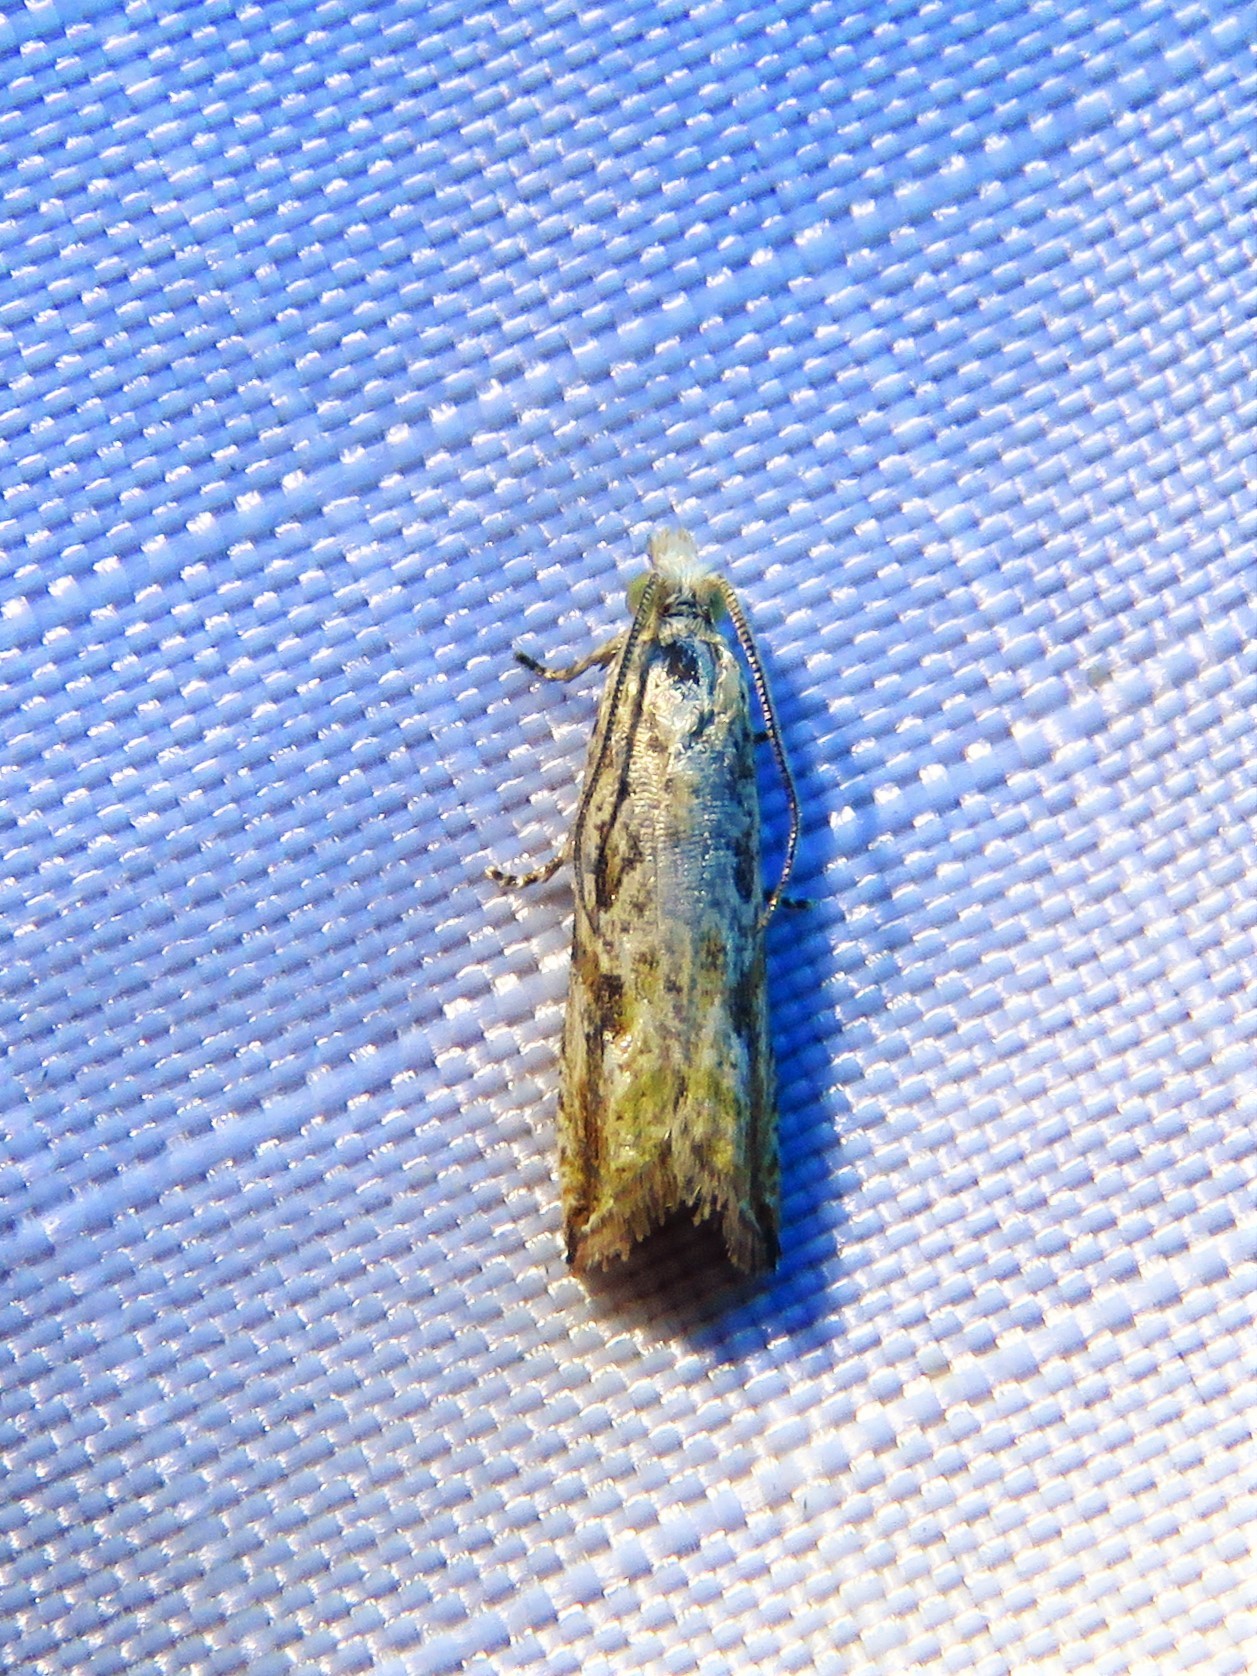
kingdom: Animalia
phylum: Arthropoda
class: Insecta
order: Lepidoptera
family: Tortricidae
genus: Bactra
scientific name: Bactra verutana
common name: Javelin moth
